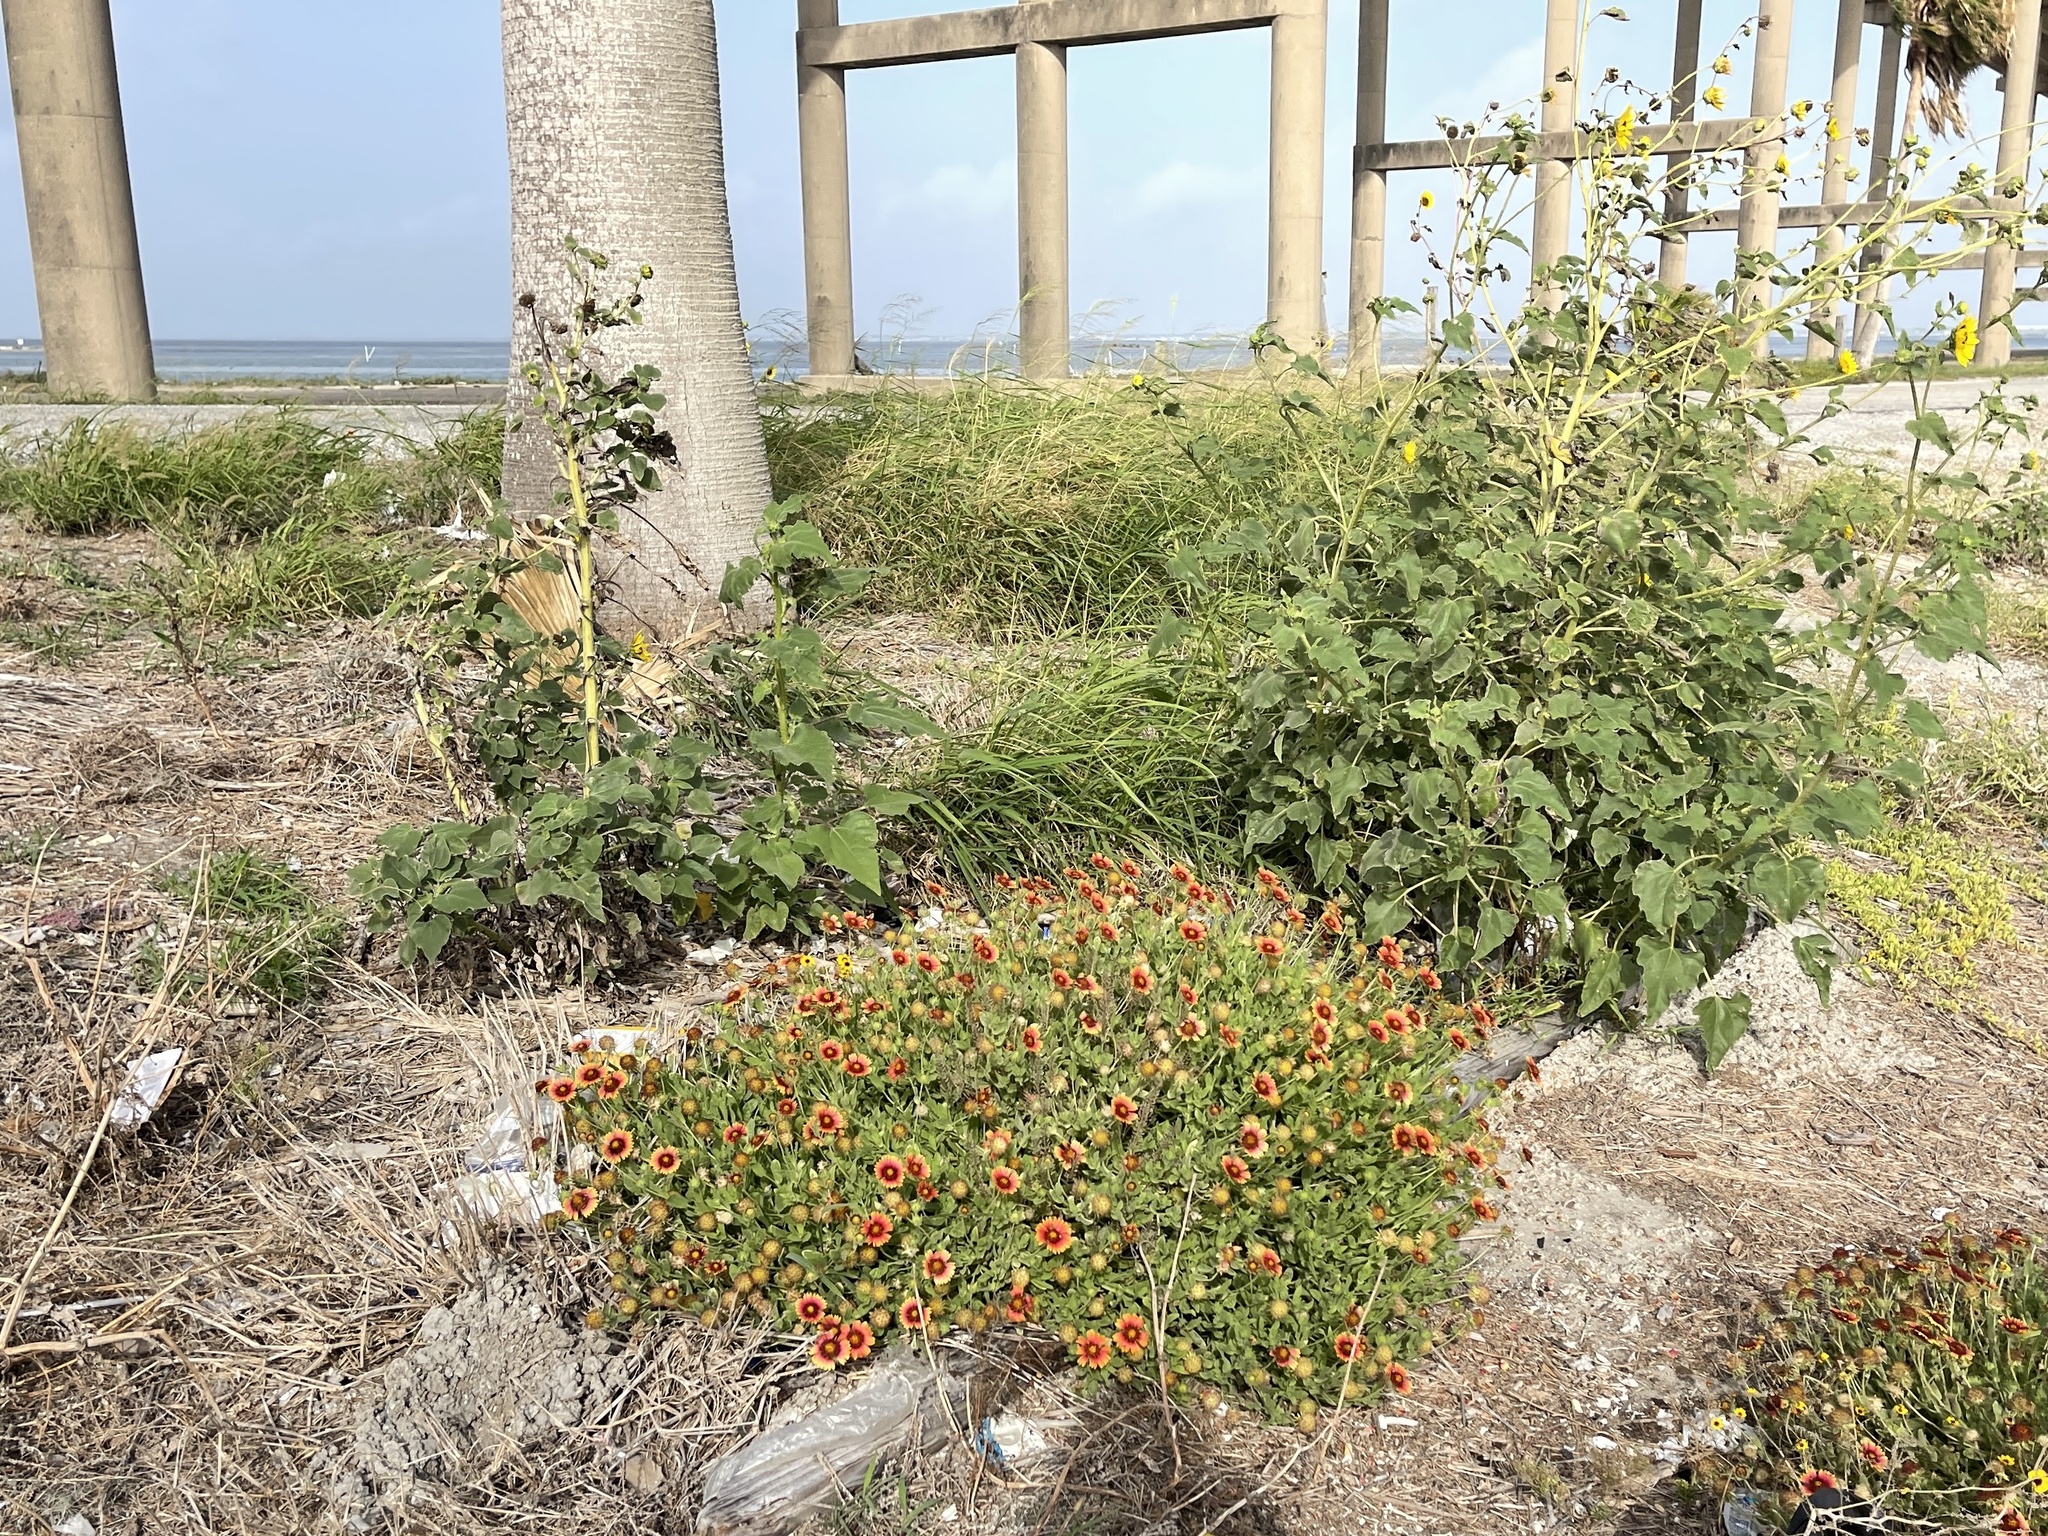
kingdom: Plantae
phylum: Tracheophyta
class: Magnoliopsida
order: Asterales
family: Asteraceae
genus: Gaillardia
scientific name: Gaillardia pulchella
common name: Firewheel
